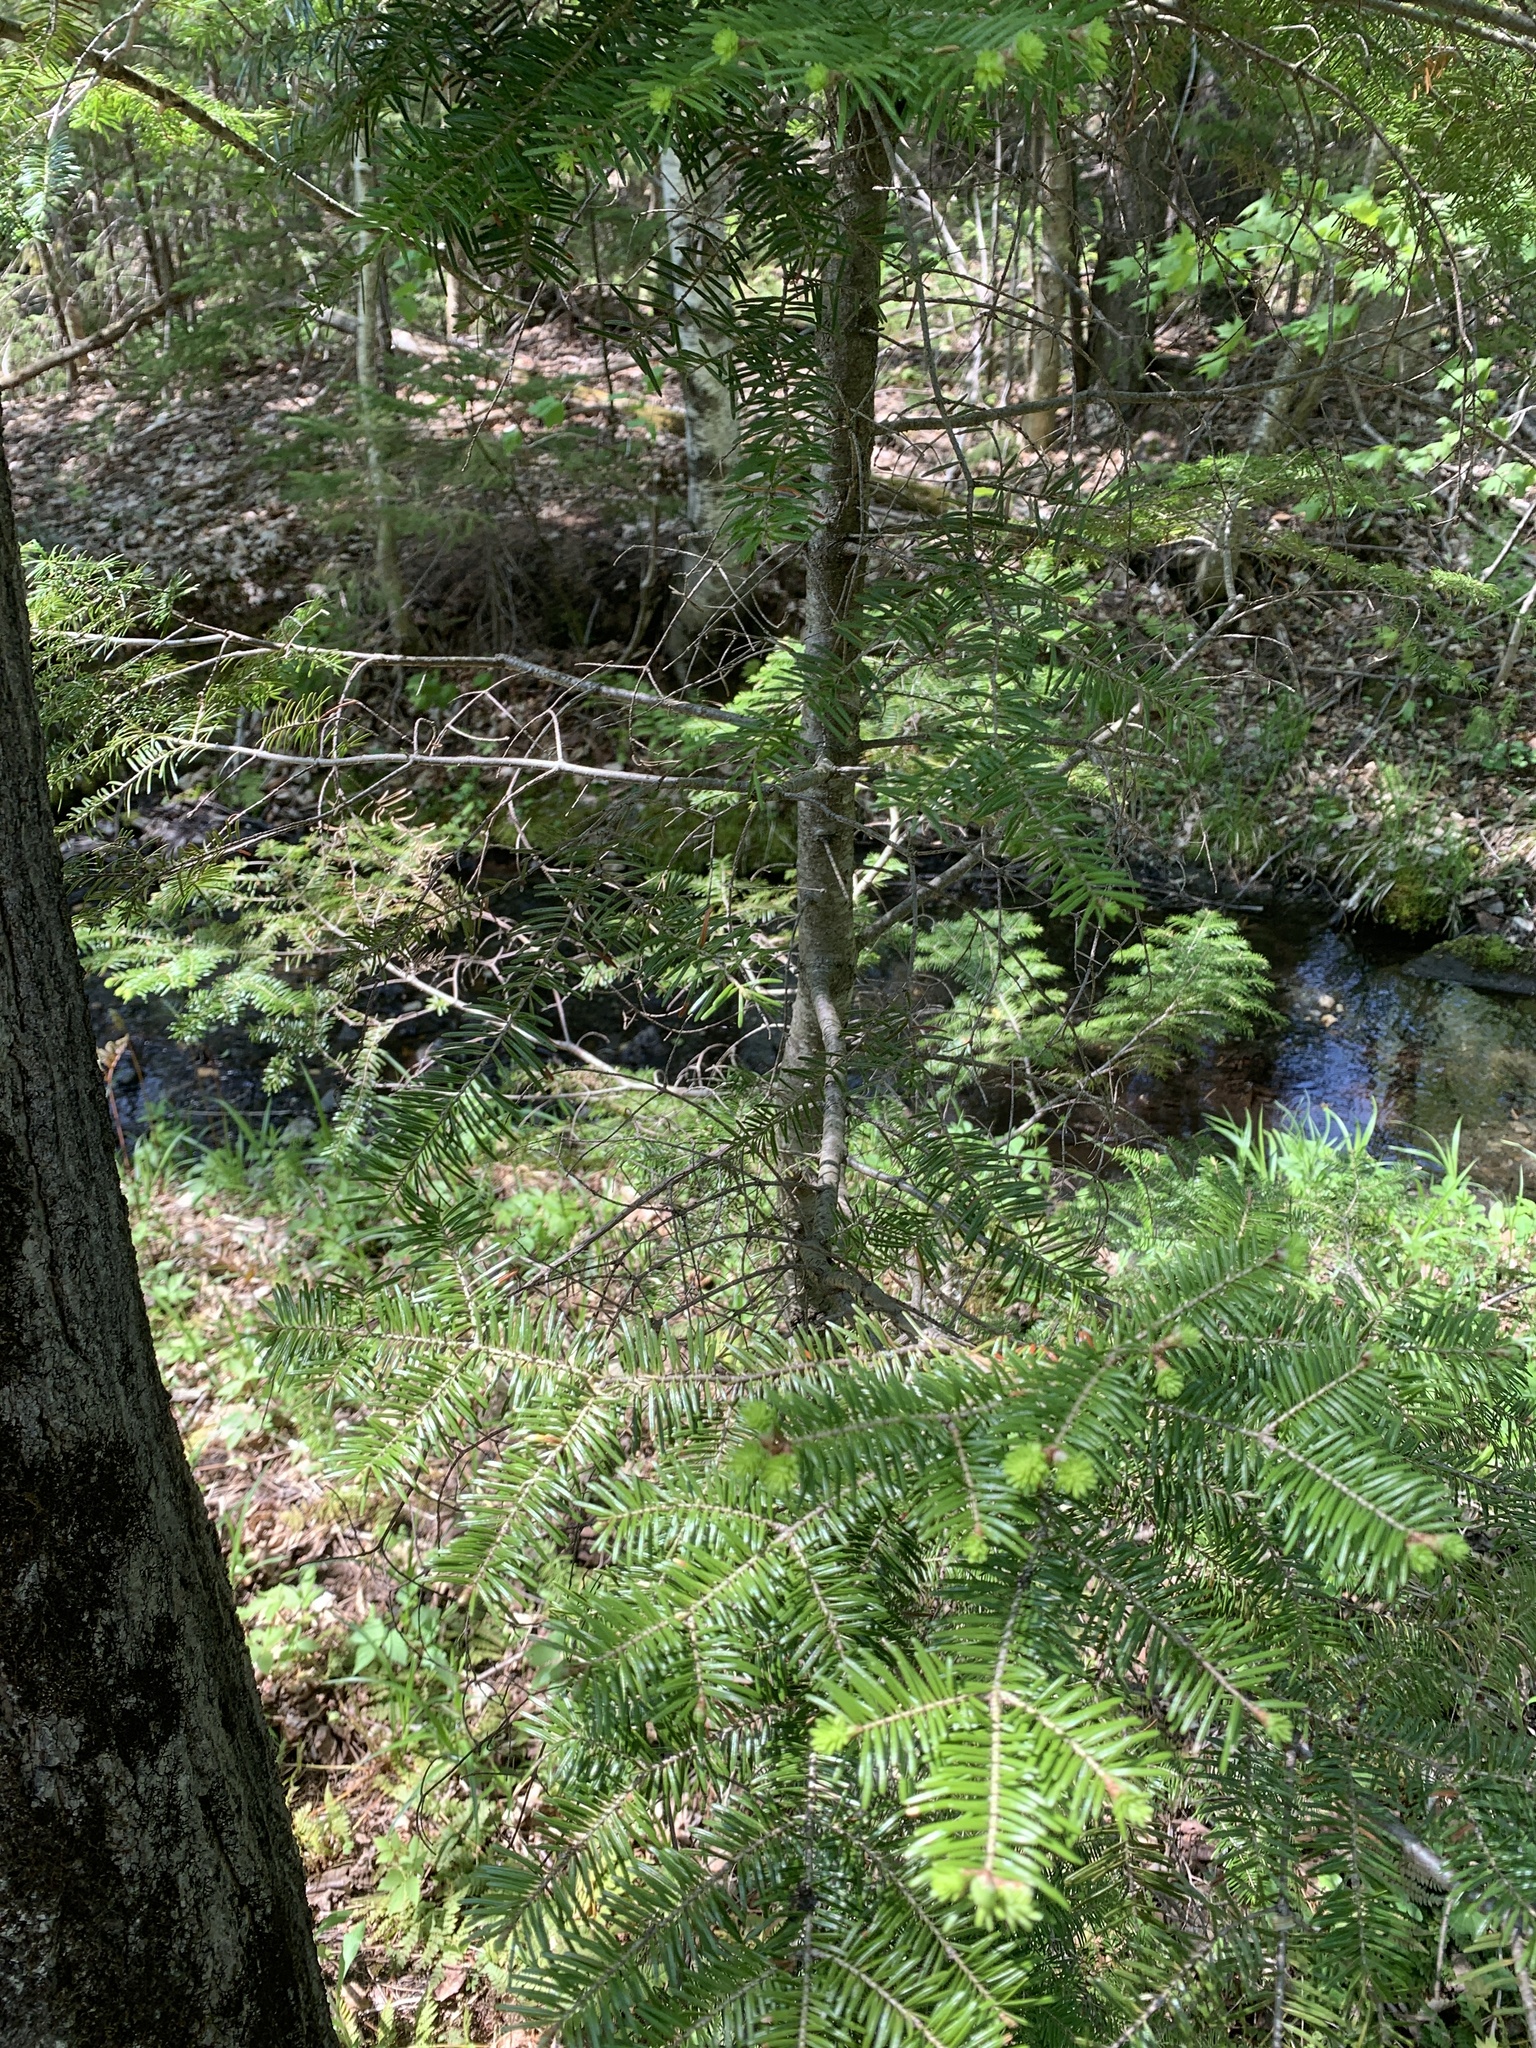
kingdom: Plantae
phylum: Tracheophyta
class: Pinopsida
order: Pinales
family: Pinaceae
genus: Abies
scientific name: Abies balsamea
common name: Balsam fir
